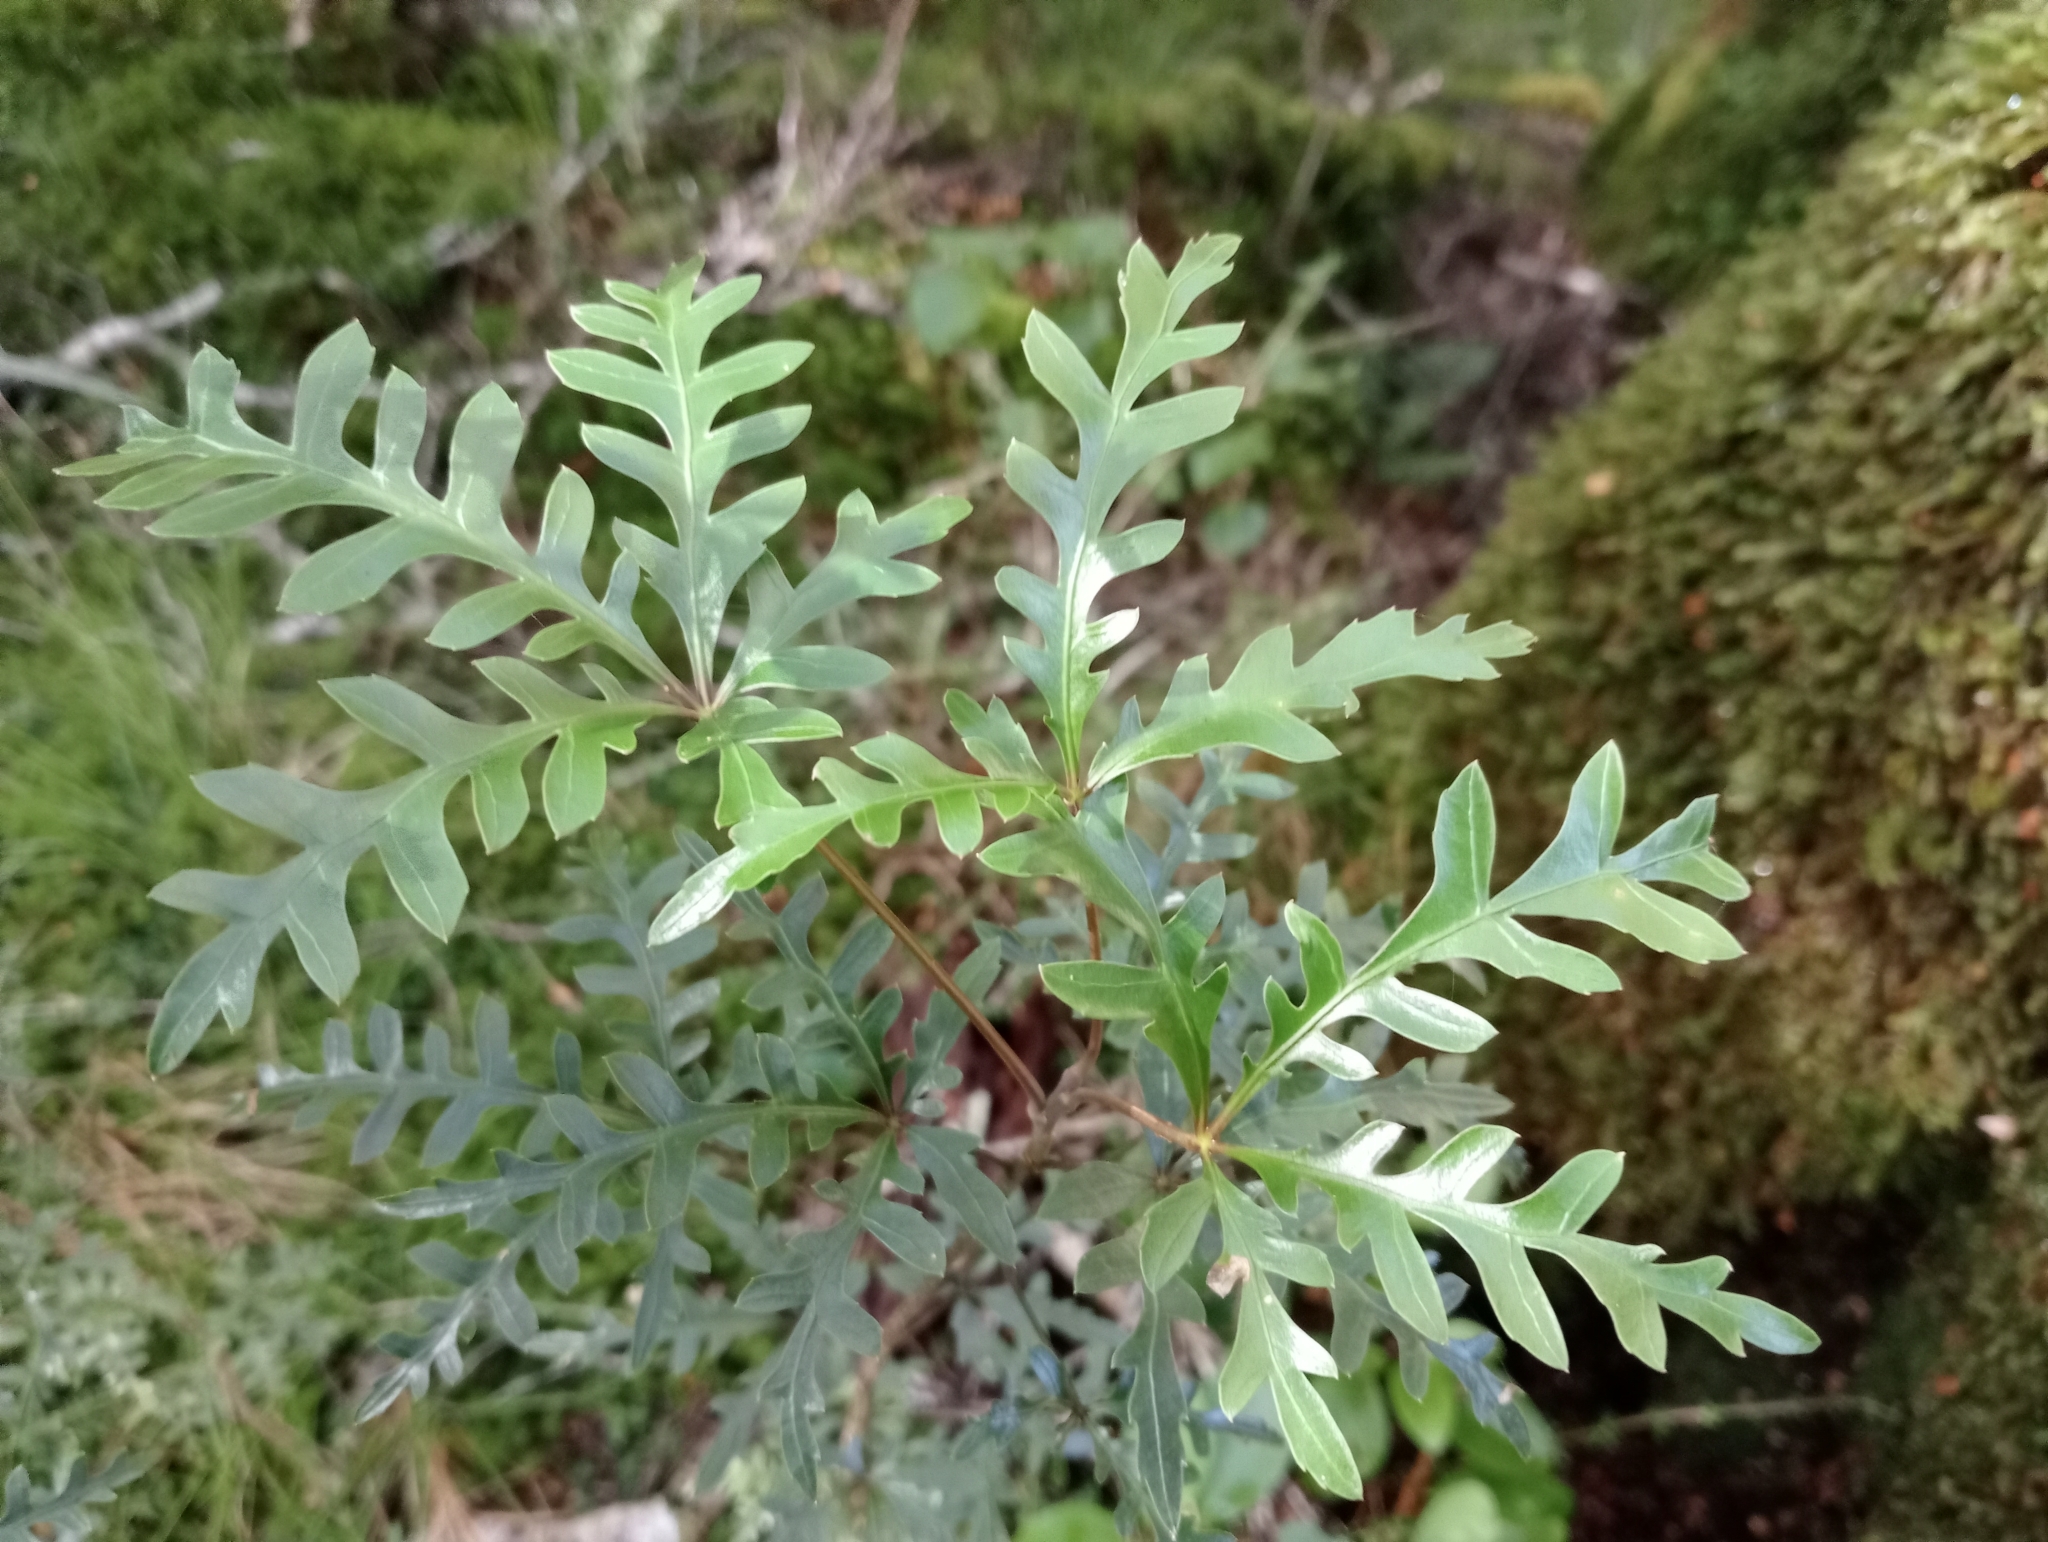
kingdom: Plantae
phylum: Tracheophyta
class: Magnoliopsida
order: Apiales
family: Araliaceae
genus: Raukaua
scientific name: Raukaua simplex
